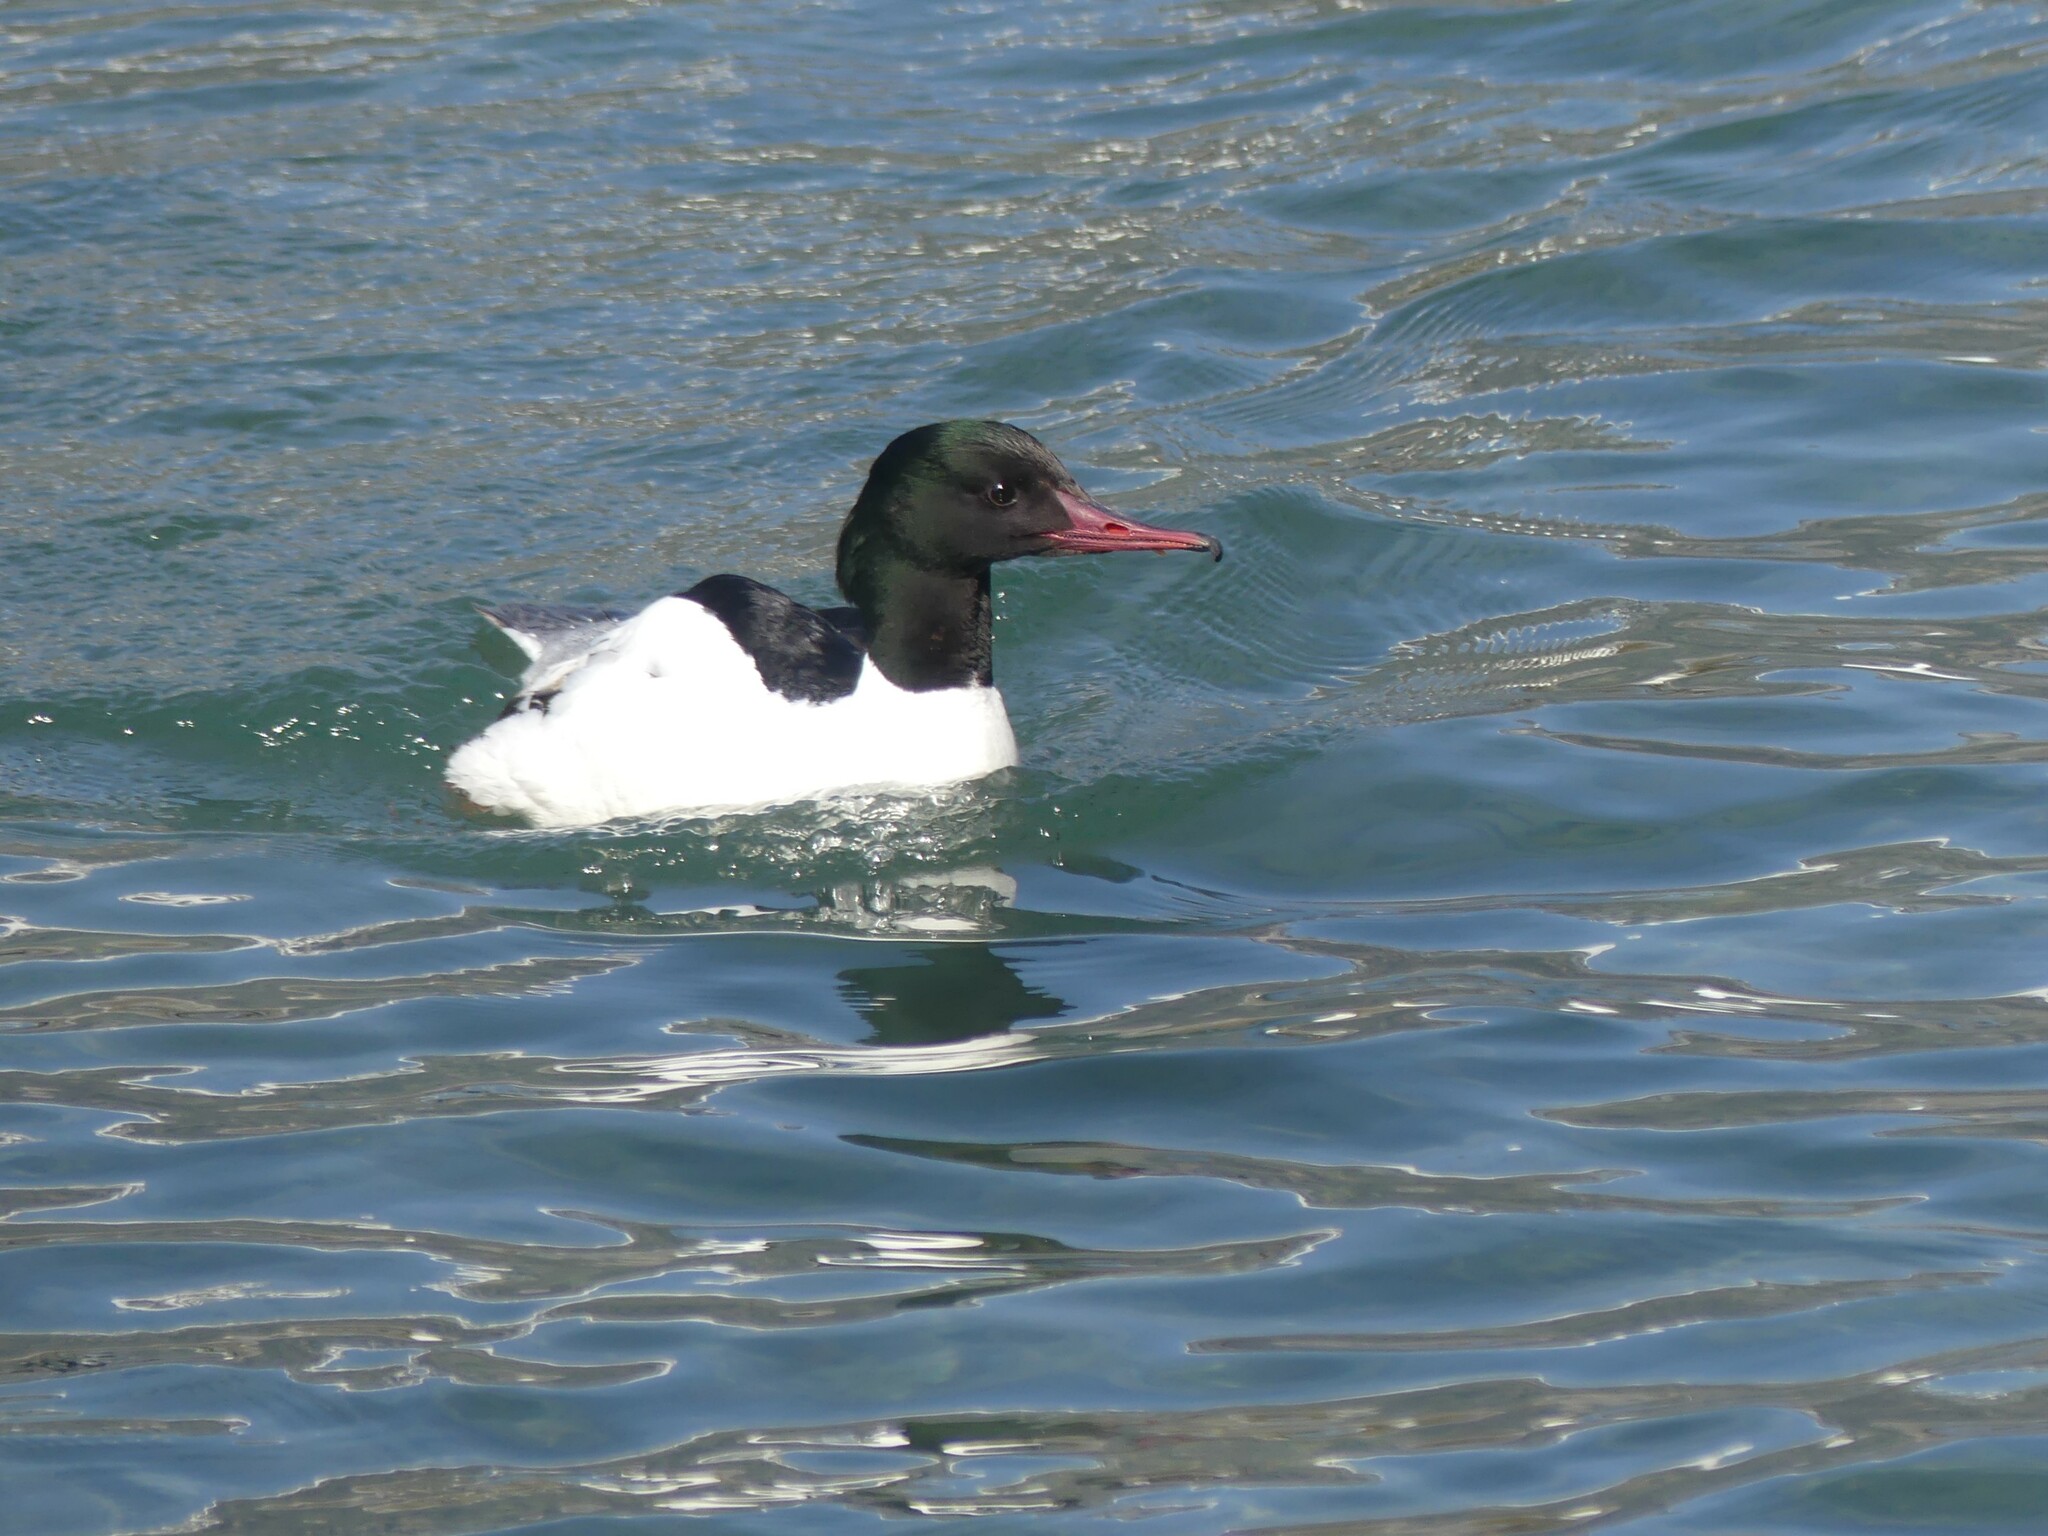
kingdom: Animalia
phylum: Chordata
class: Aves
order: Anseriformes
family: Anatidae
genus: Mergus
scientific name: Mergus merganser
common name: Common merganser
